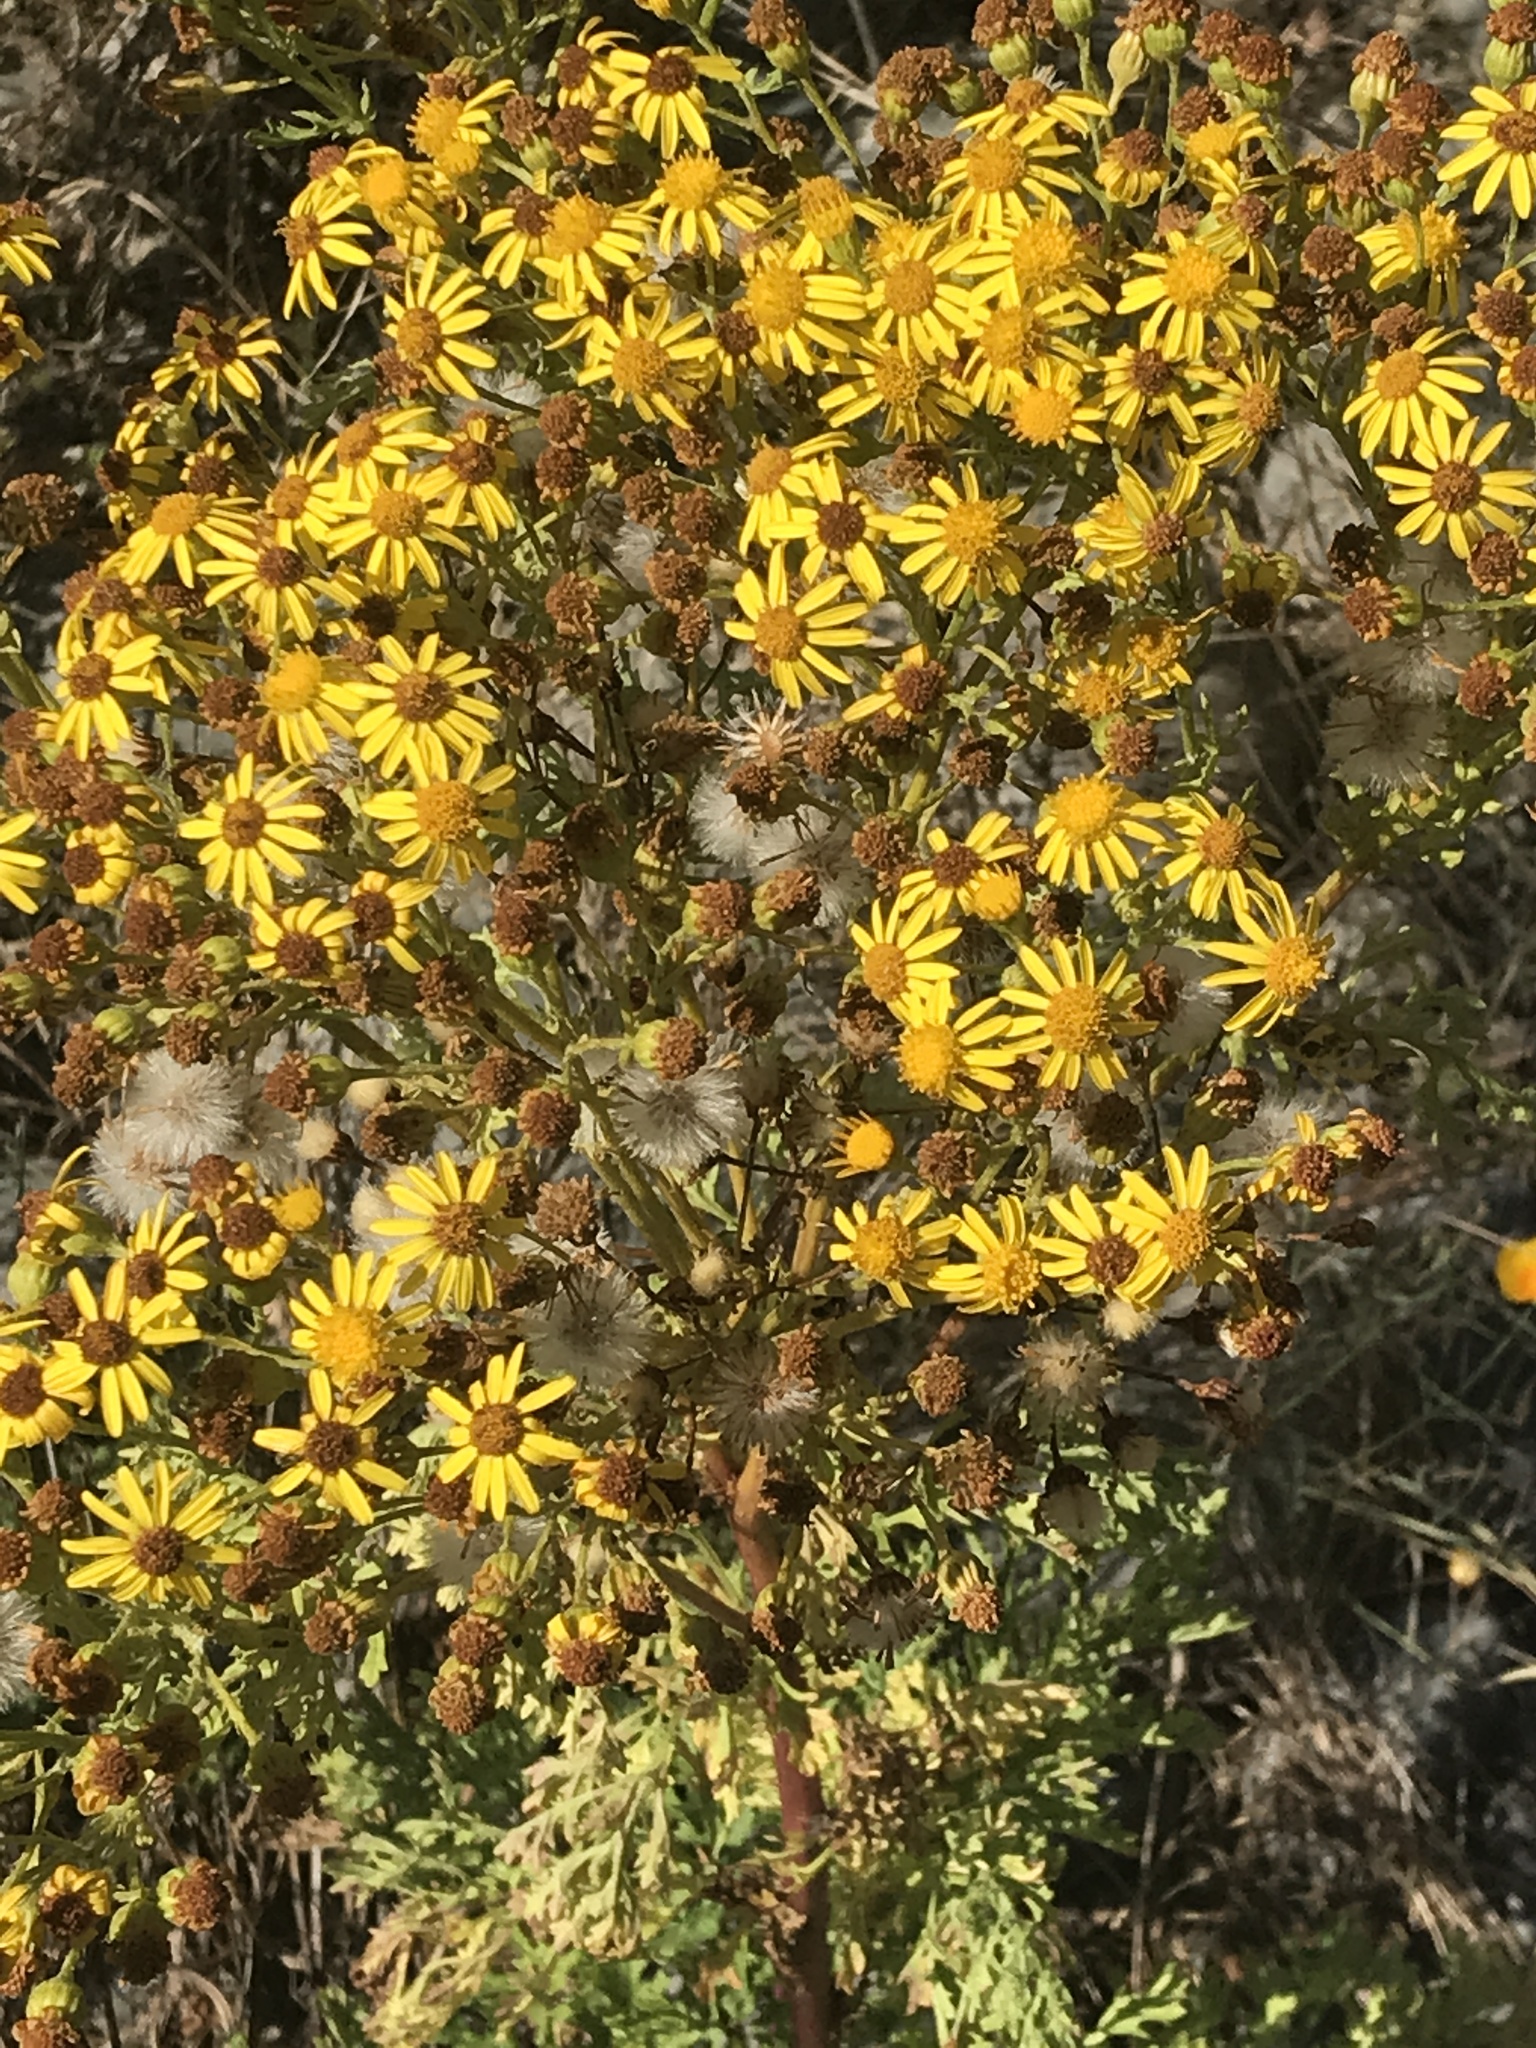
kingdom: Plantae
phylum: Tracheophyta
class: Magnoliopsida
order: Asterales
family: Asteraceae
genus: Jacobaea
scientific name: Jacobaea vulgaris
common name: Stinking willie
